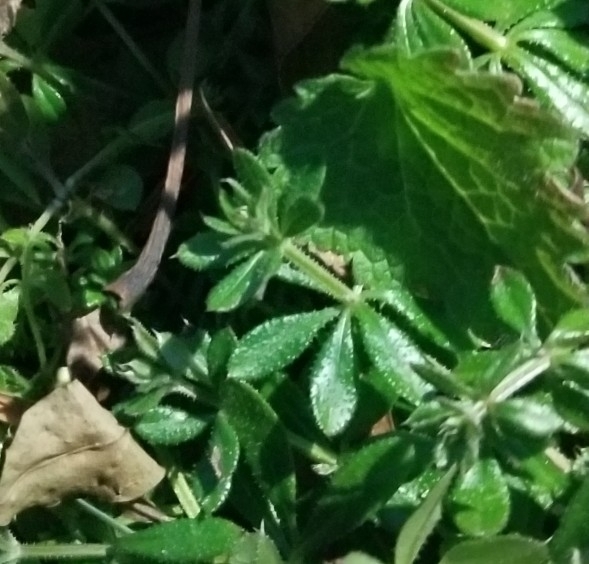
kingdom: Plantae
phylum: Tracheophyta
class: Magnoliopsida
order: Gentianales
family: Rubiaceae
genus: Galium
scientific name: Galium aparine
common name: Cleavers
